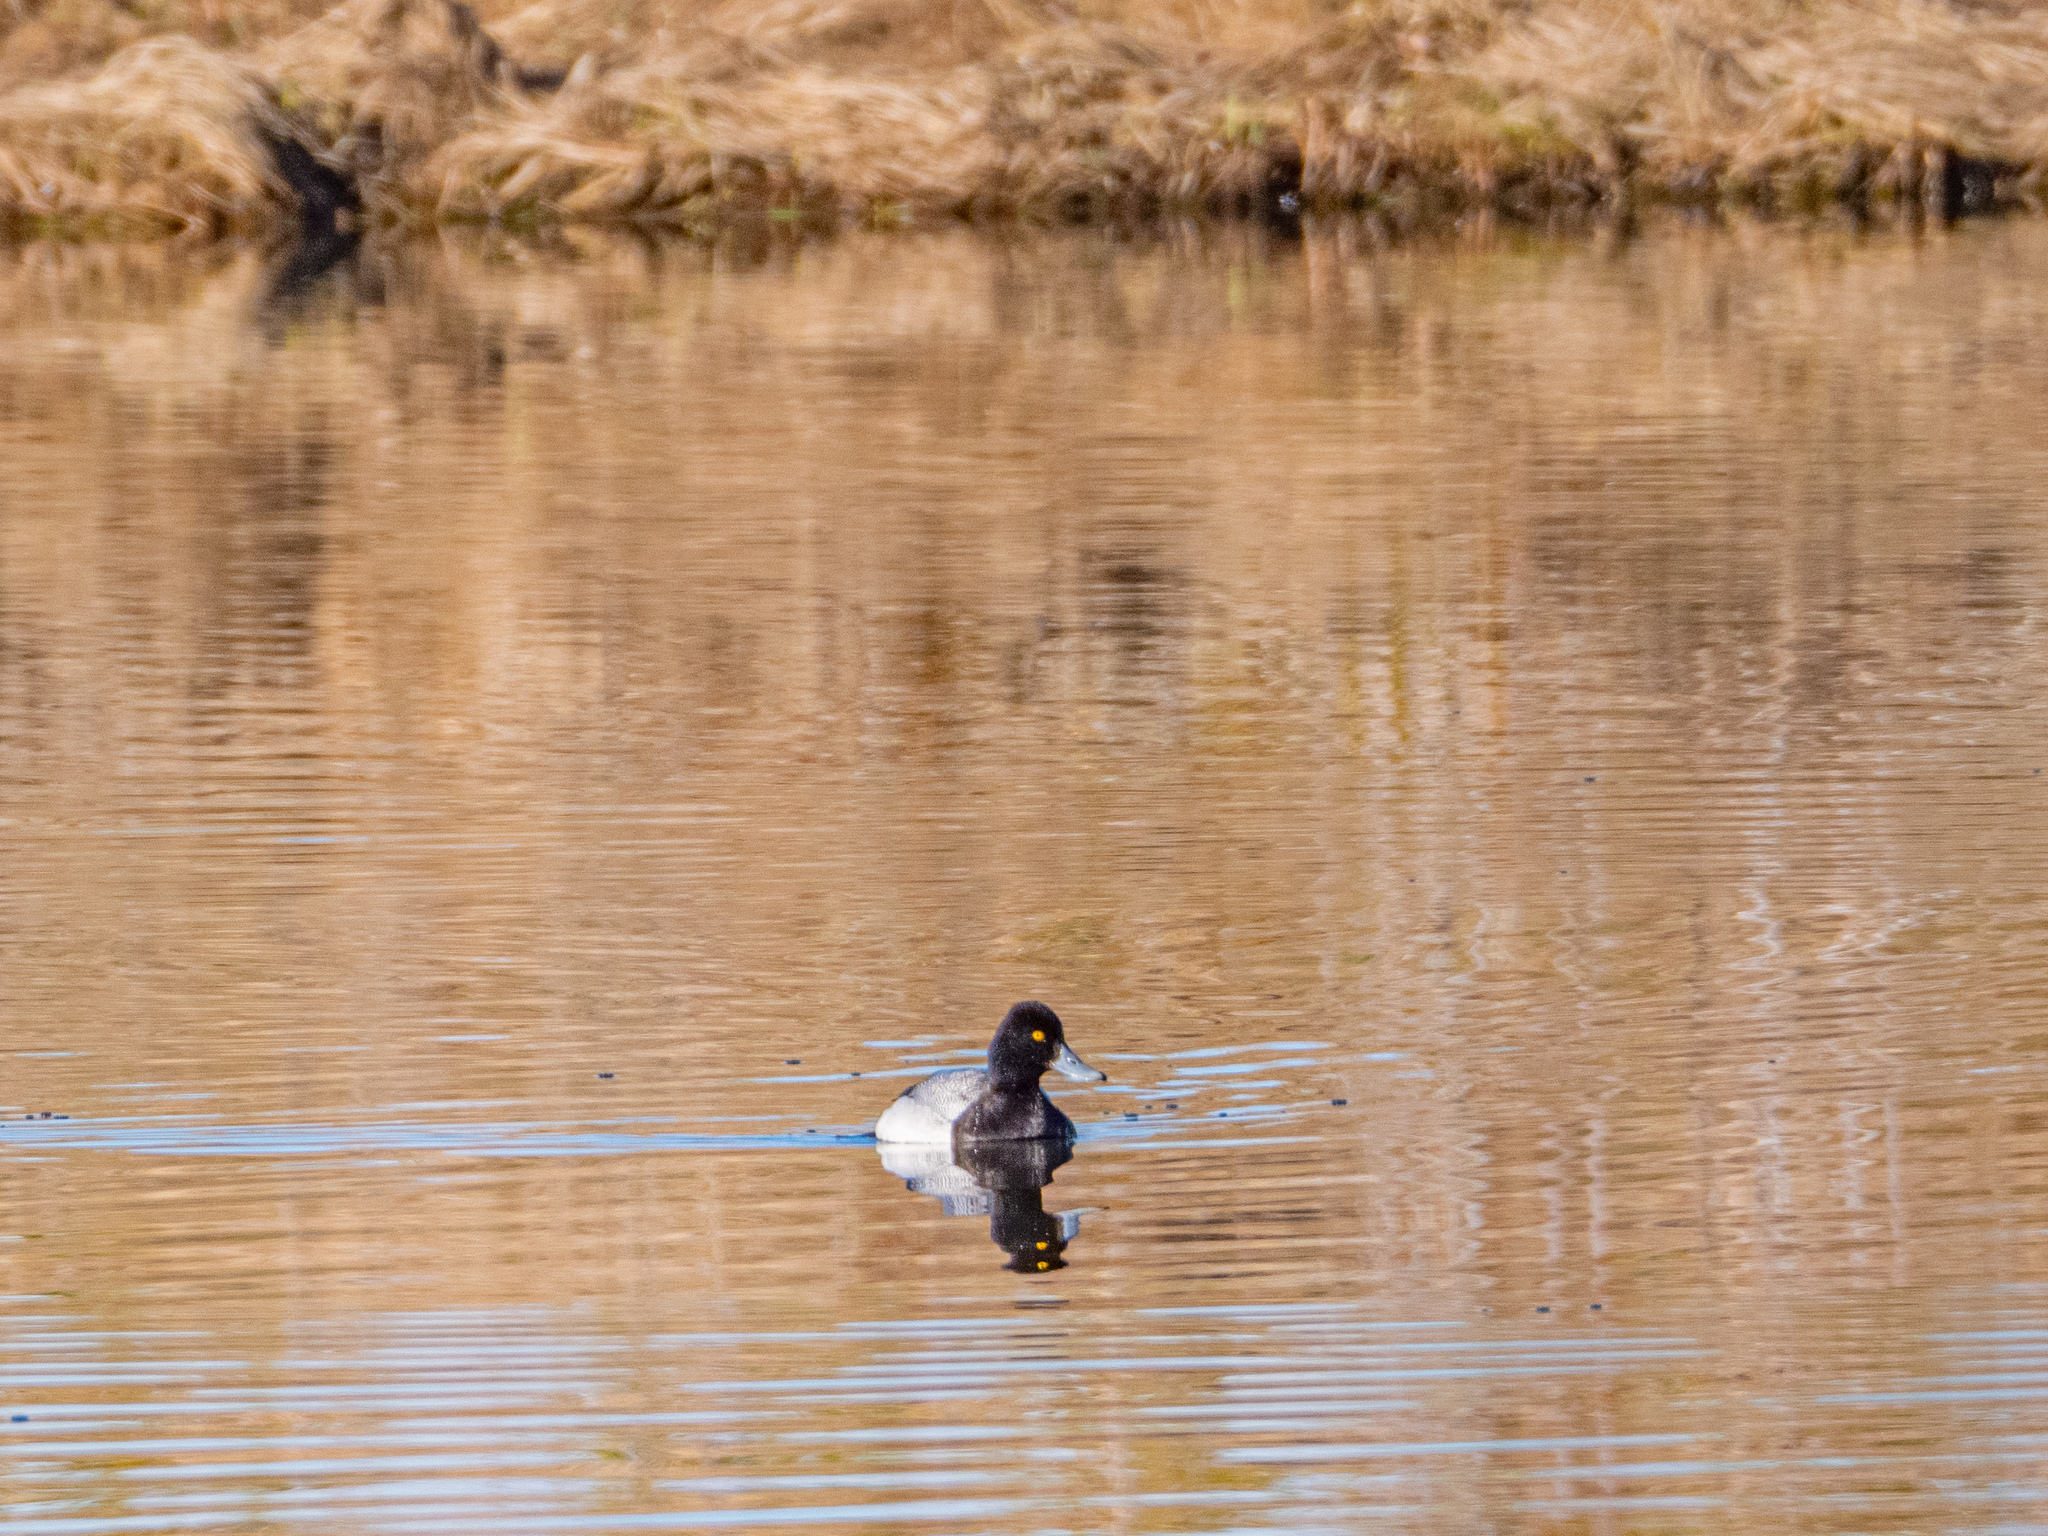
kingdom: Animalia
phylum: Chordata
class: Aves
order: Anseriformes
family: Anatidae
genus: Aythya
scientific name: Aythya affinis
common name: Lesser scaup
